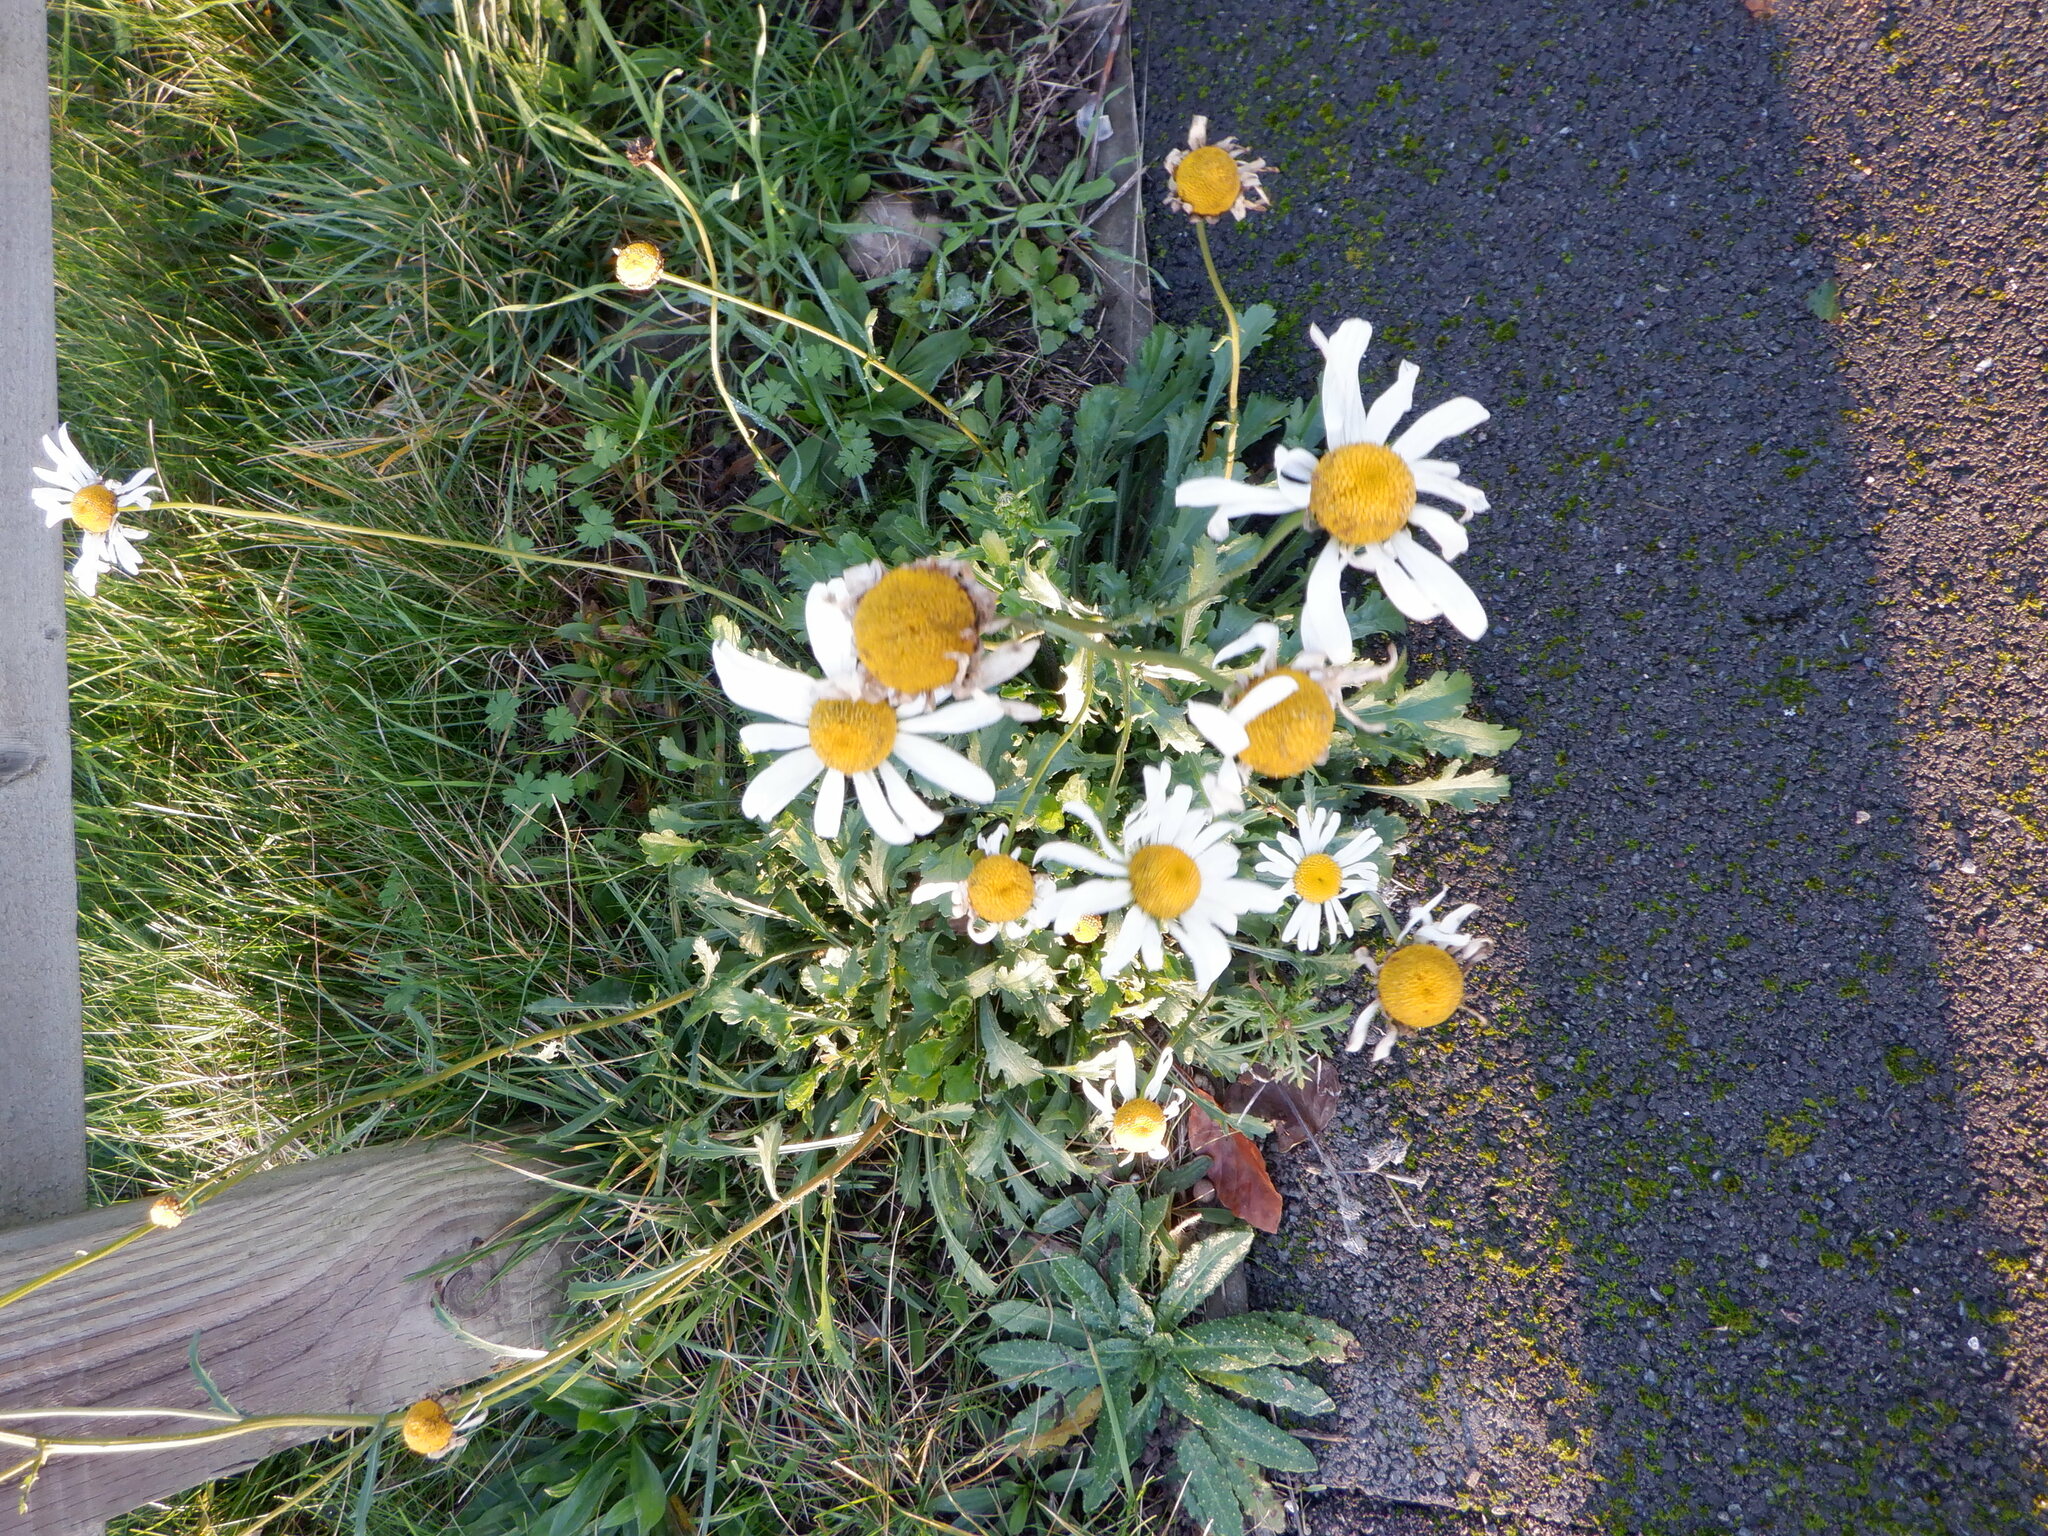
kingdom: Plantae
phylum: Tracheophyta
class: Magnoliopsida
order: Asterales
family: Asteraceae
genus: Leucanthemum
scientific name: Leucanthemum vulgare
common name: Oxeye daisy
